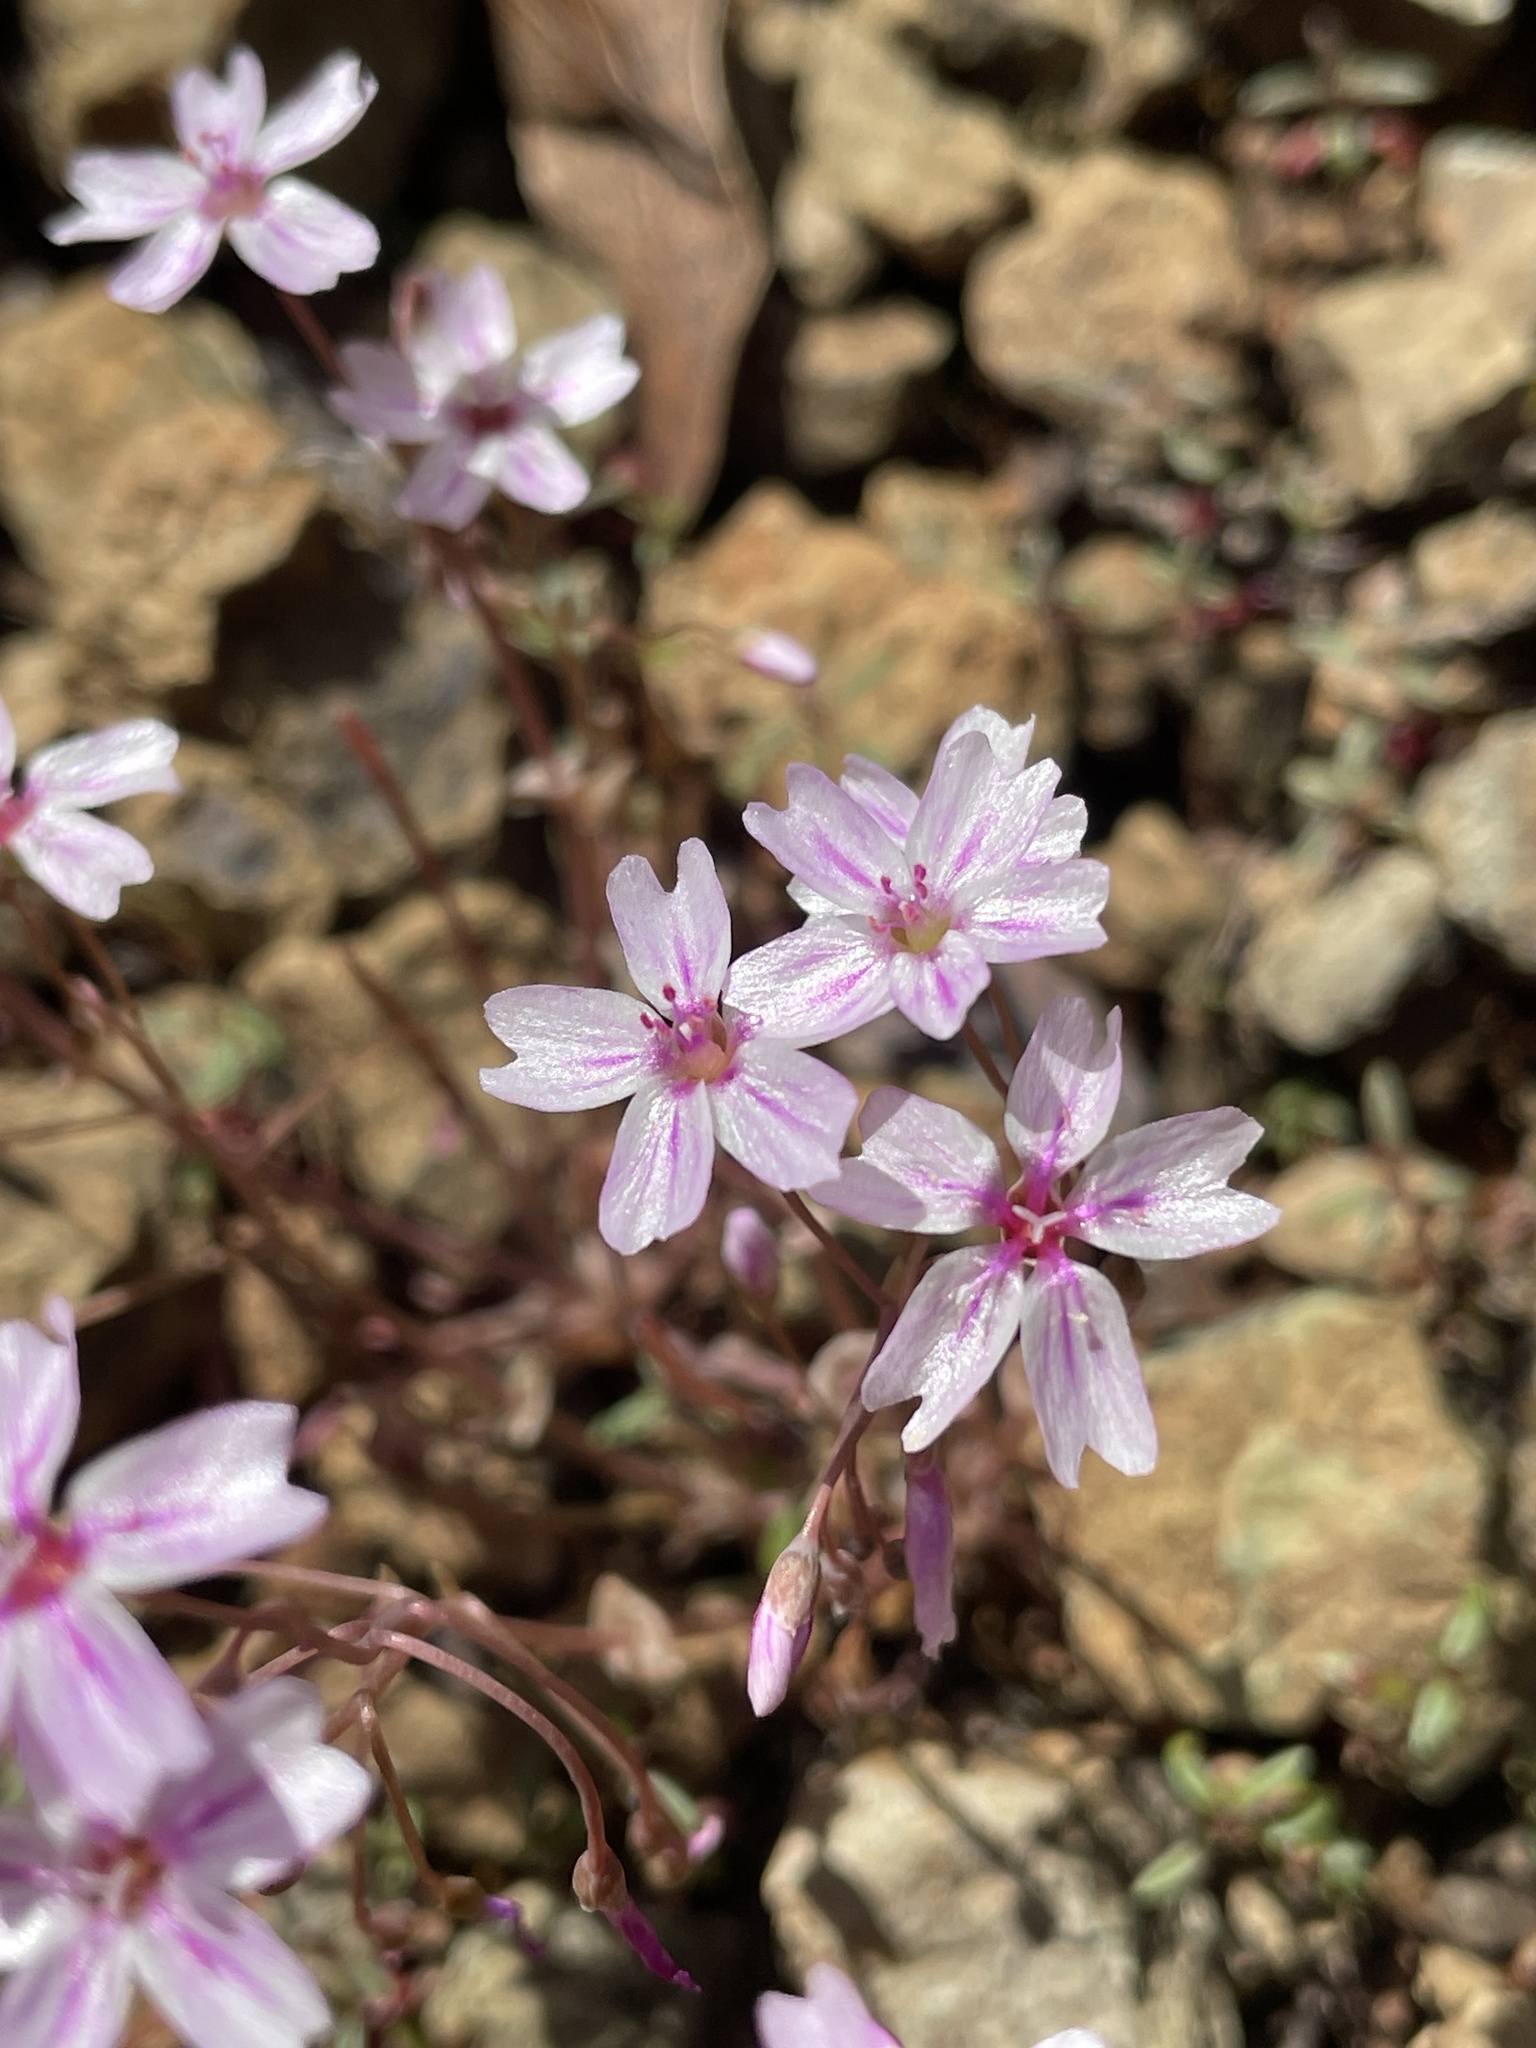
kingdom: Plantae
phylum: Tracheophyta
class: Magnoliopsida
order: Caryophyllales
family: Montiaceae
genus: Claytonia
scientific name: Claytonia gypsophiloides
